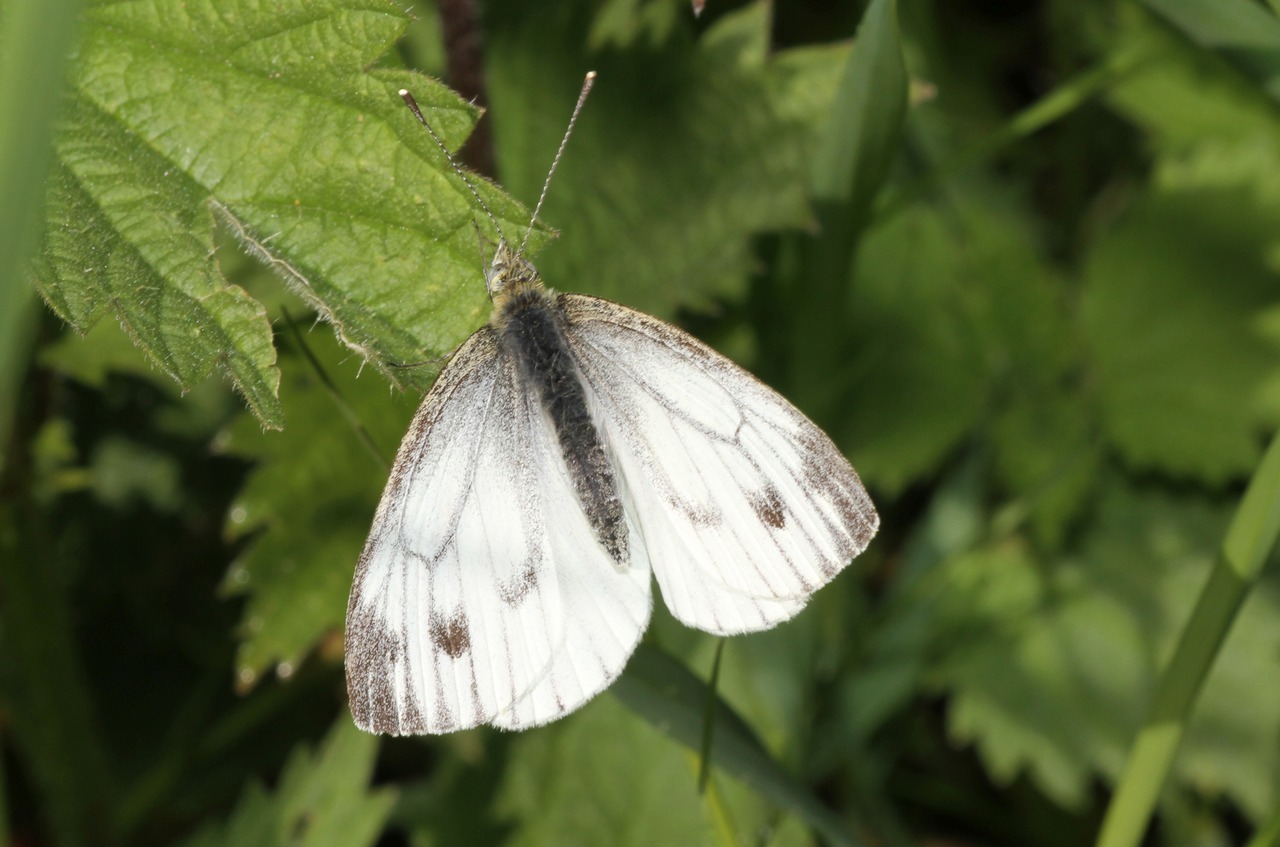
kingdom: Animalia
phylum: Arthropoda
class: Insecta
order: Lepidoptera
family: Pieridae
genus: Pieris
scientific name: Pieris napi
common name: Green-veined white
